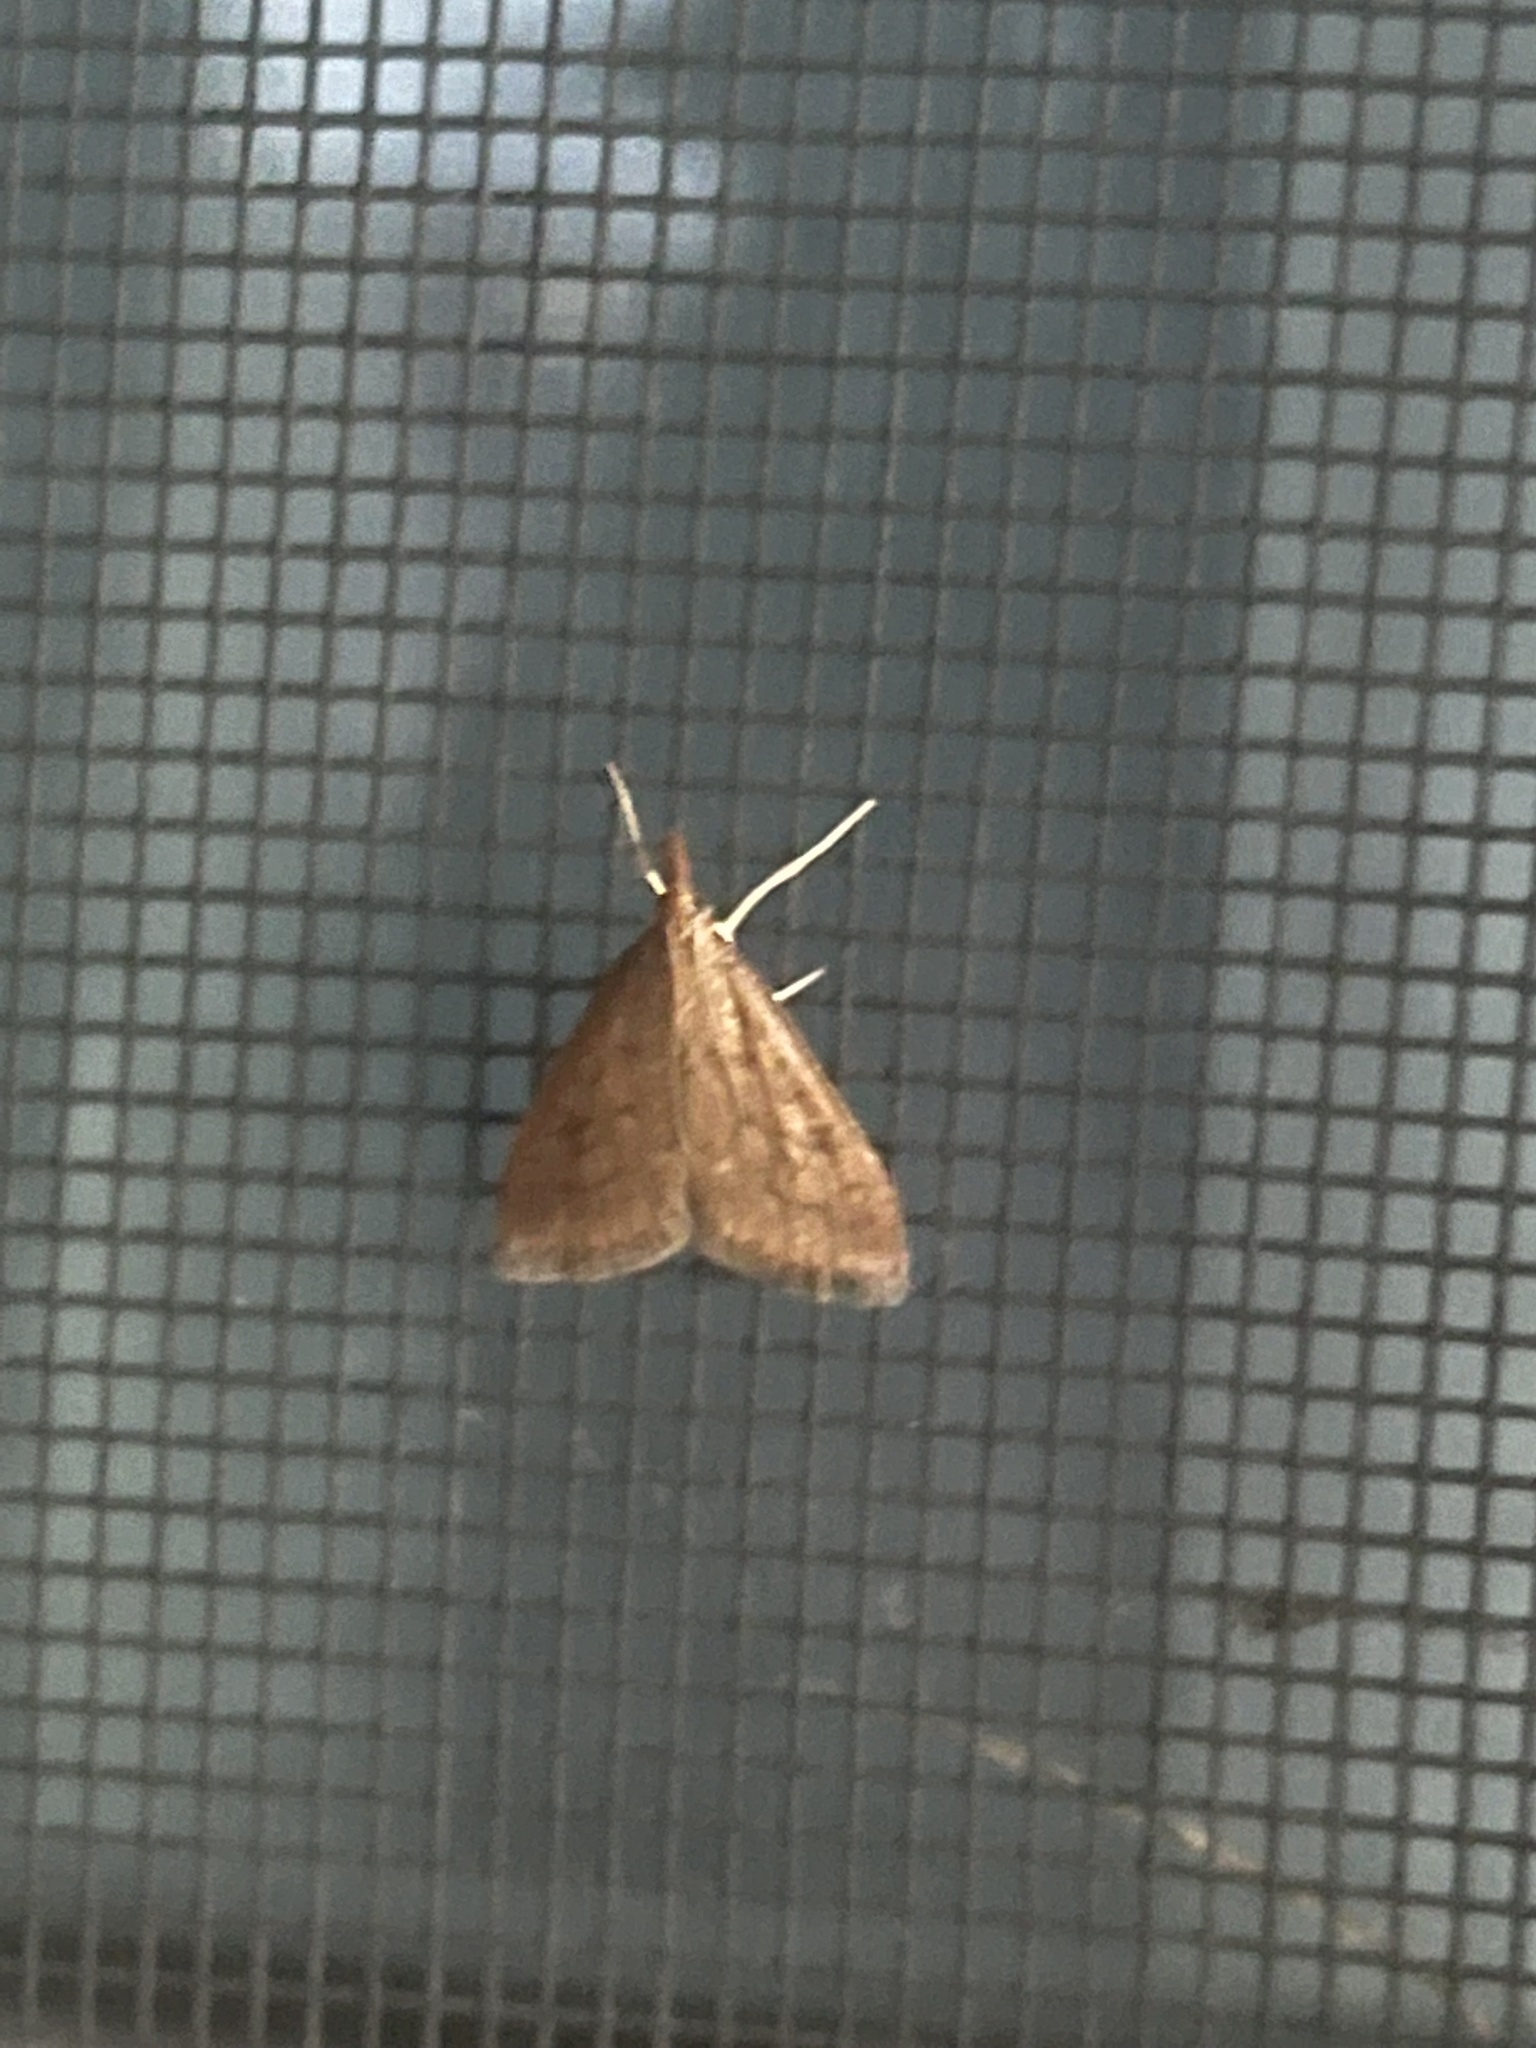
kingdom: Animalia
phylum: Arthropoda
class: Insecta
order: Lepidoptera
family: Crambidae
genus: Udea
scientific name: Udea rubigalis
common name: Celery leaftier moth
